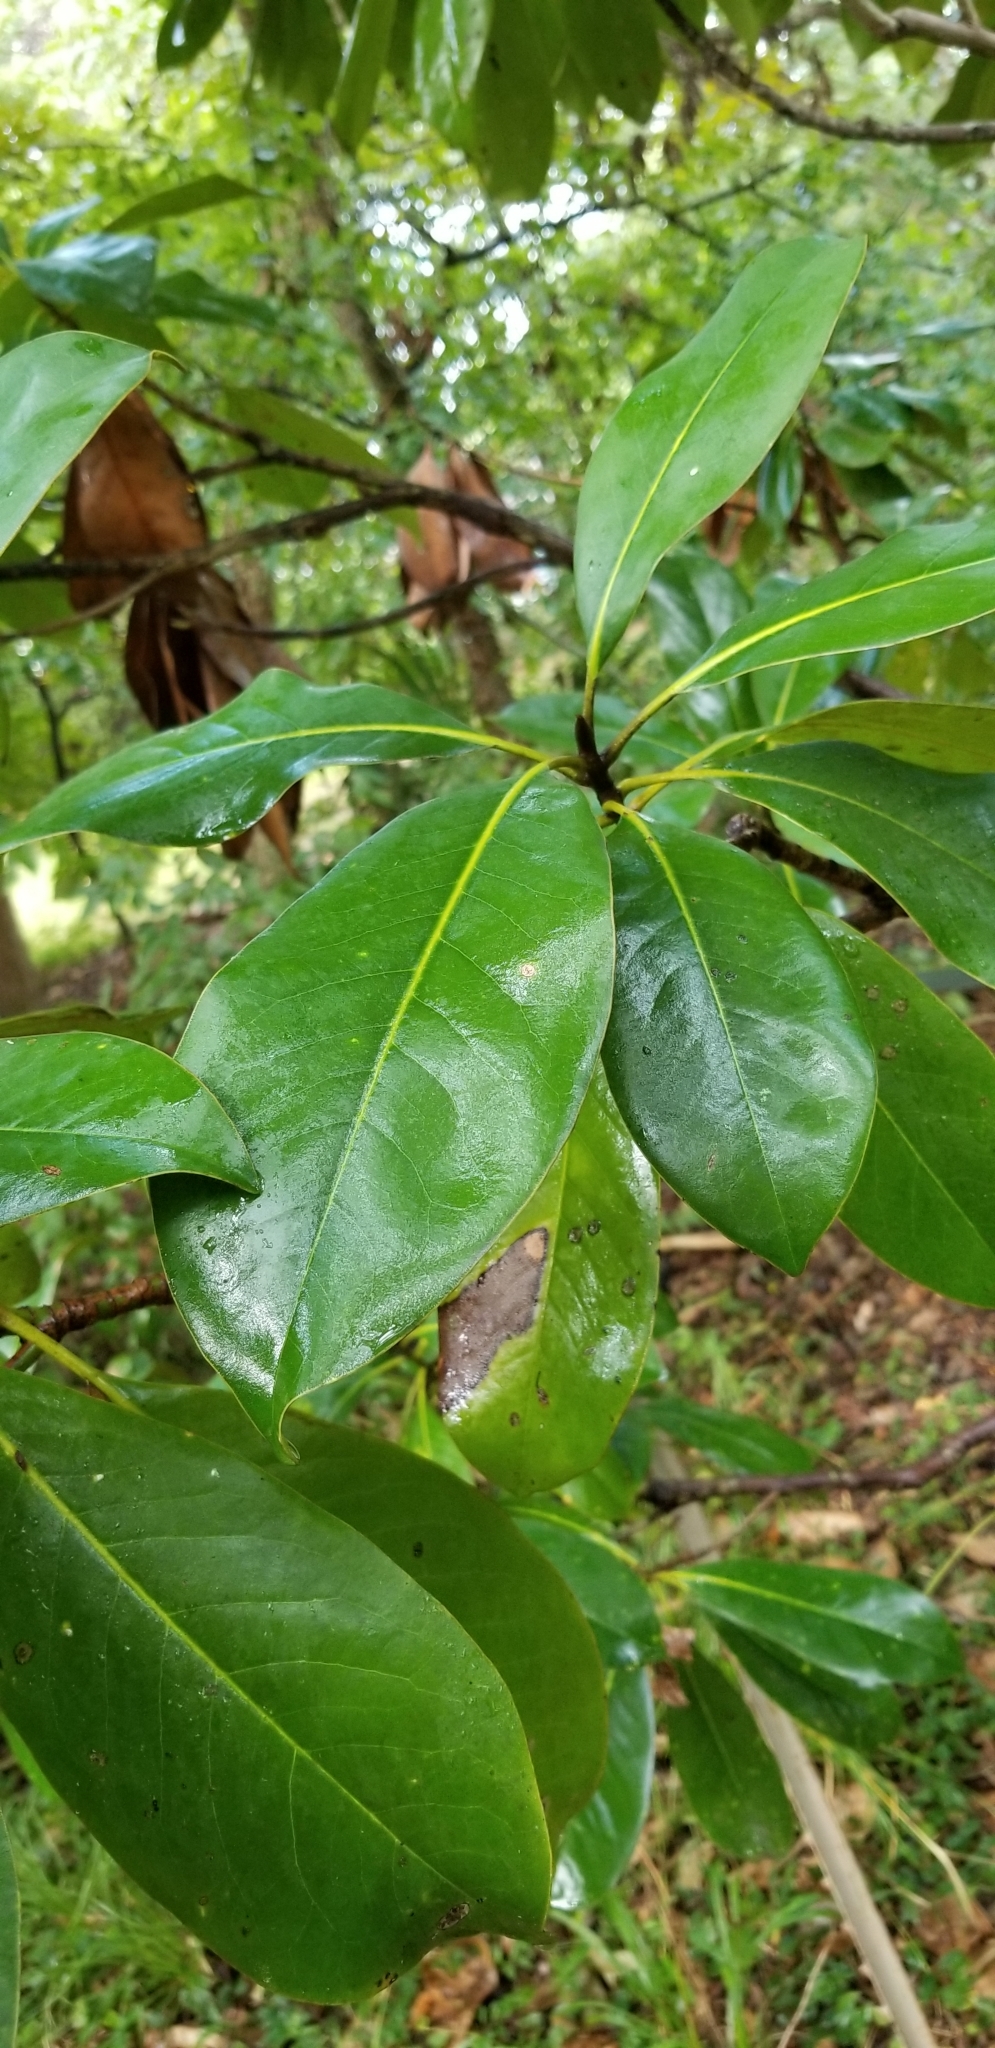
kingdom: Plantae
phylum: Tracheophyta
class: Magnoliopsida
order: Magnoliales
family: Magnoliaceae
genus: Magnolia
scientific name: Magnolia grandiflora
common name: Southern magnolia
